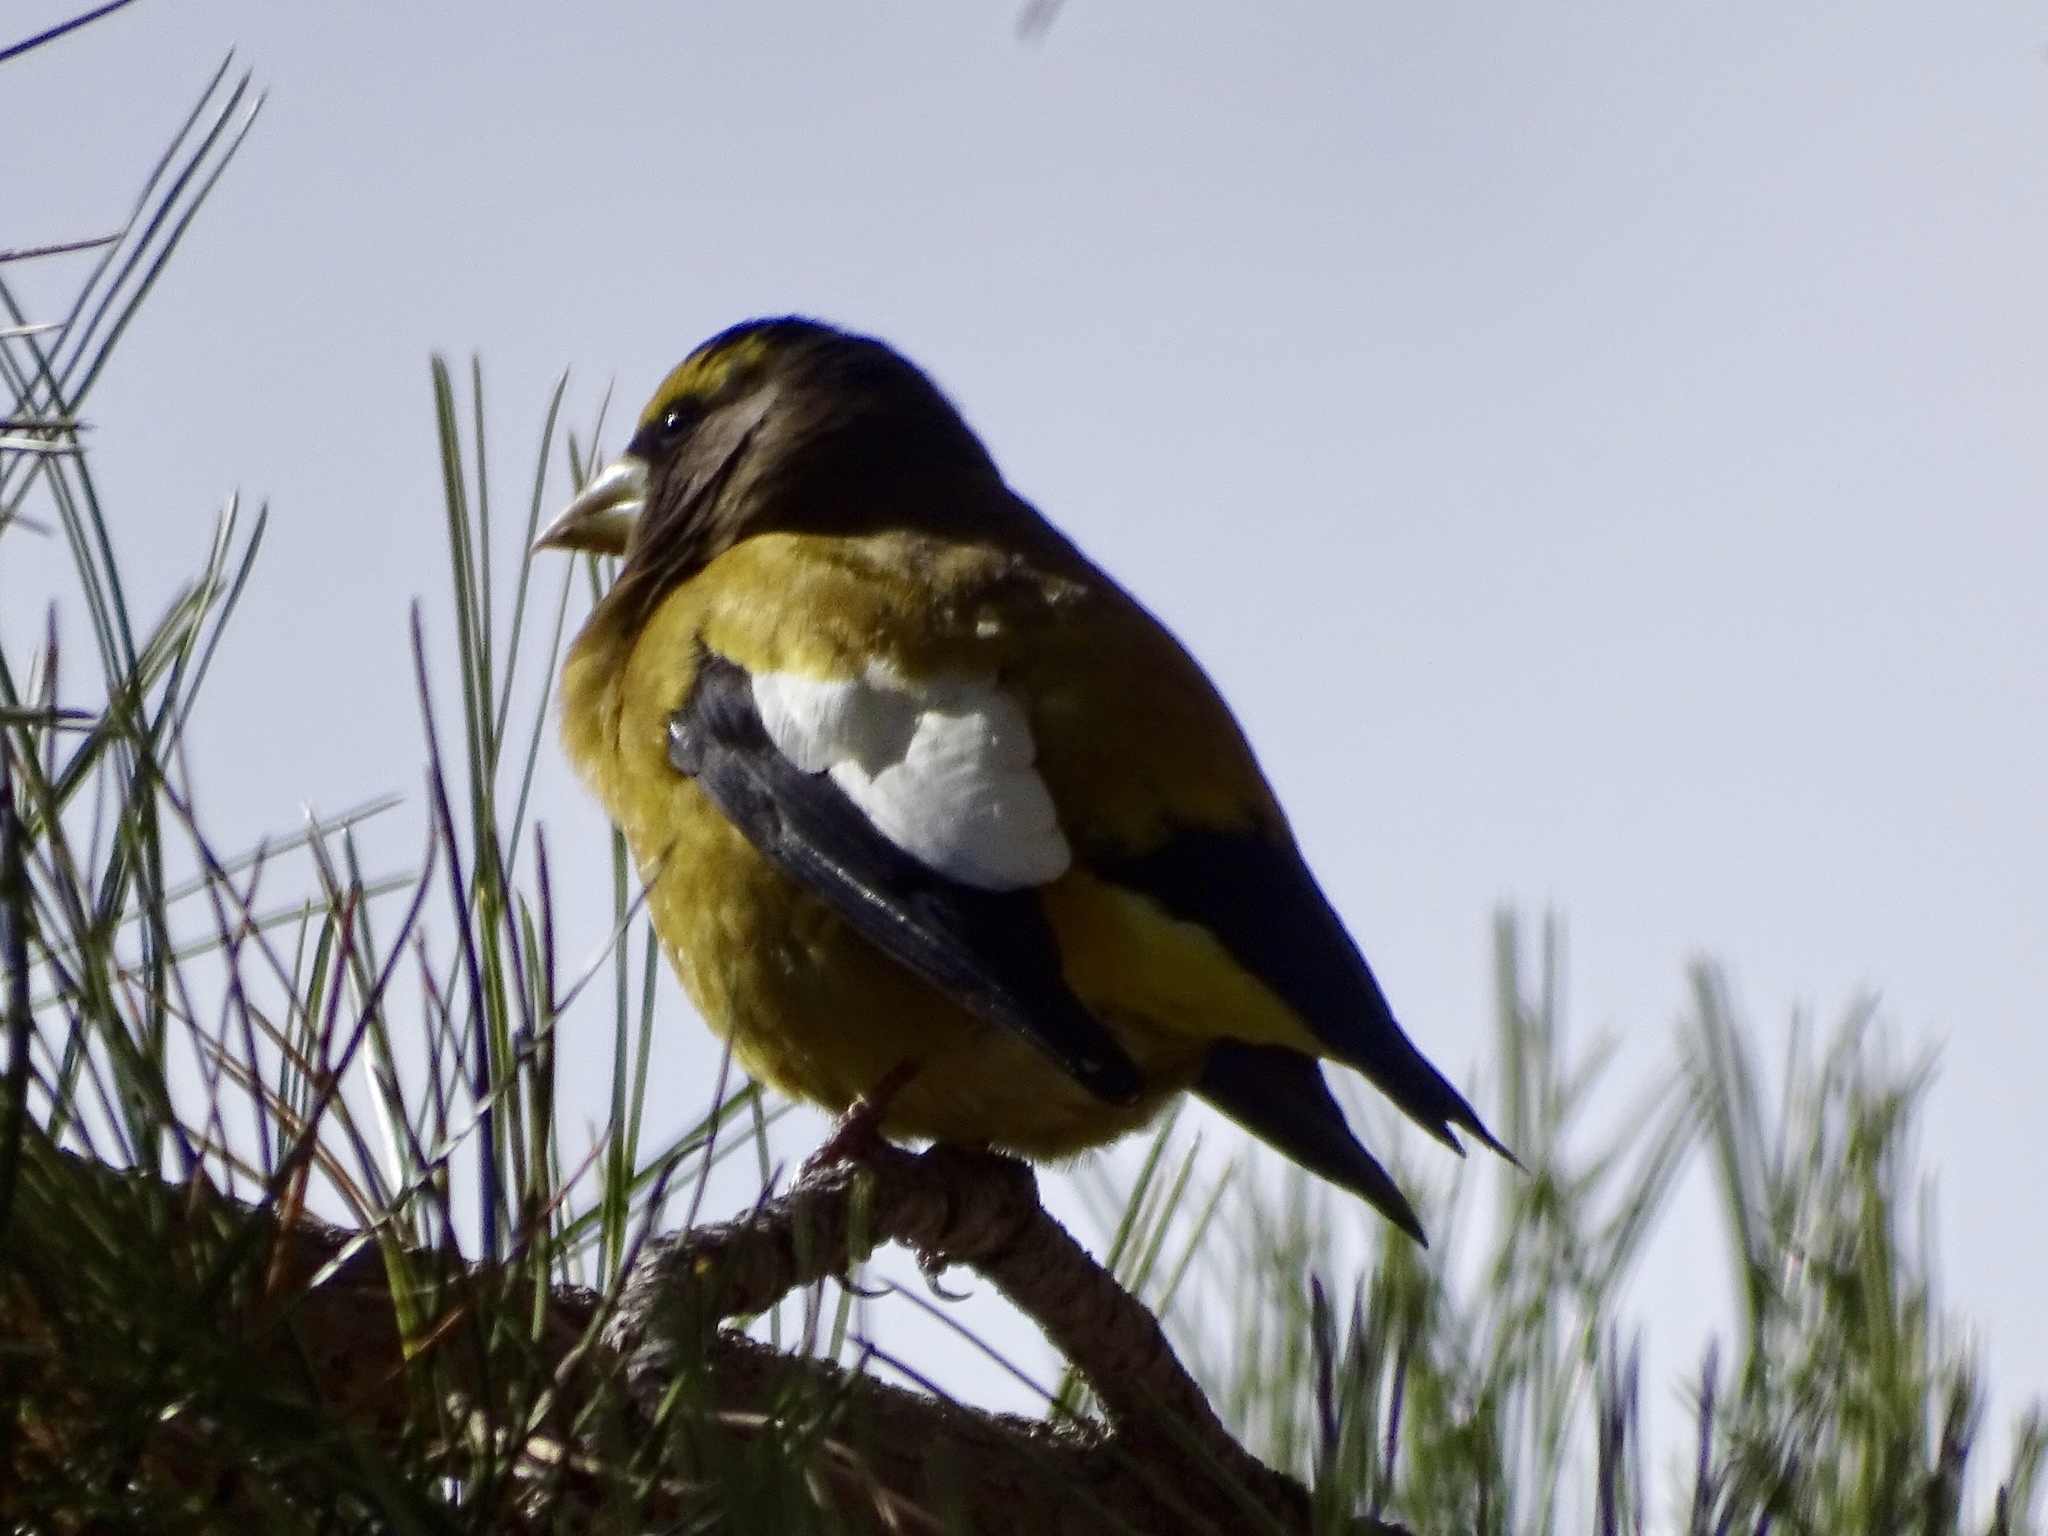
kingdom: Animalia
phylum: Chordata
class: Aves
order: Passeriformes
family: Fringillidae
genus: Hesperiphona
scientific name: Hesperiphona vespertina
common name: Evening grosbeak
